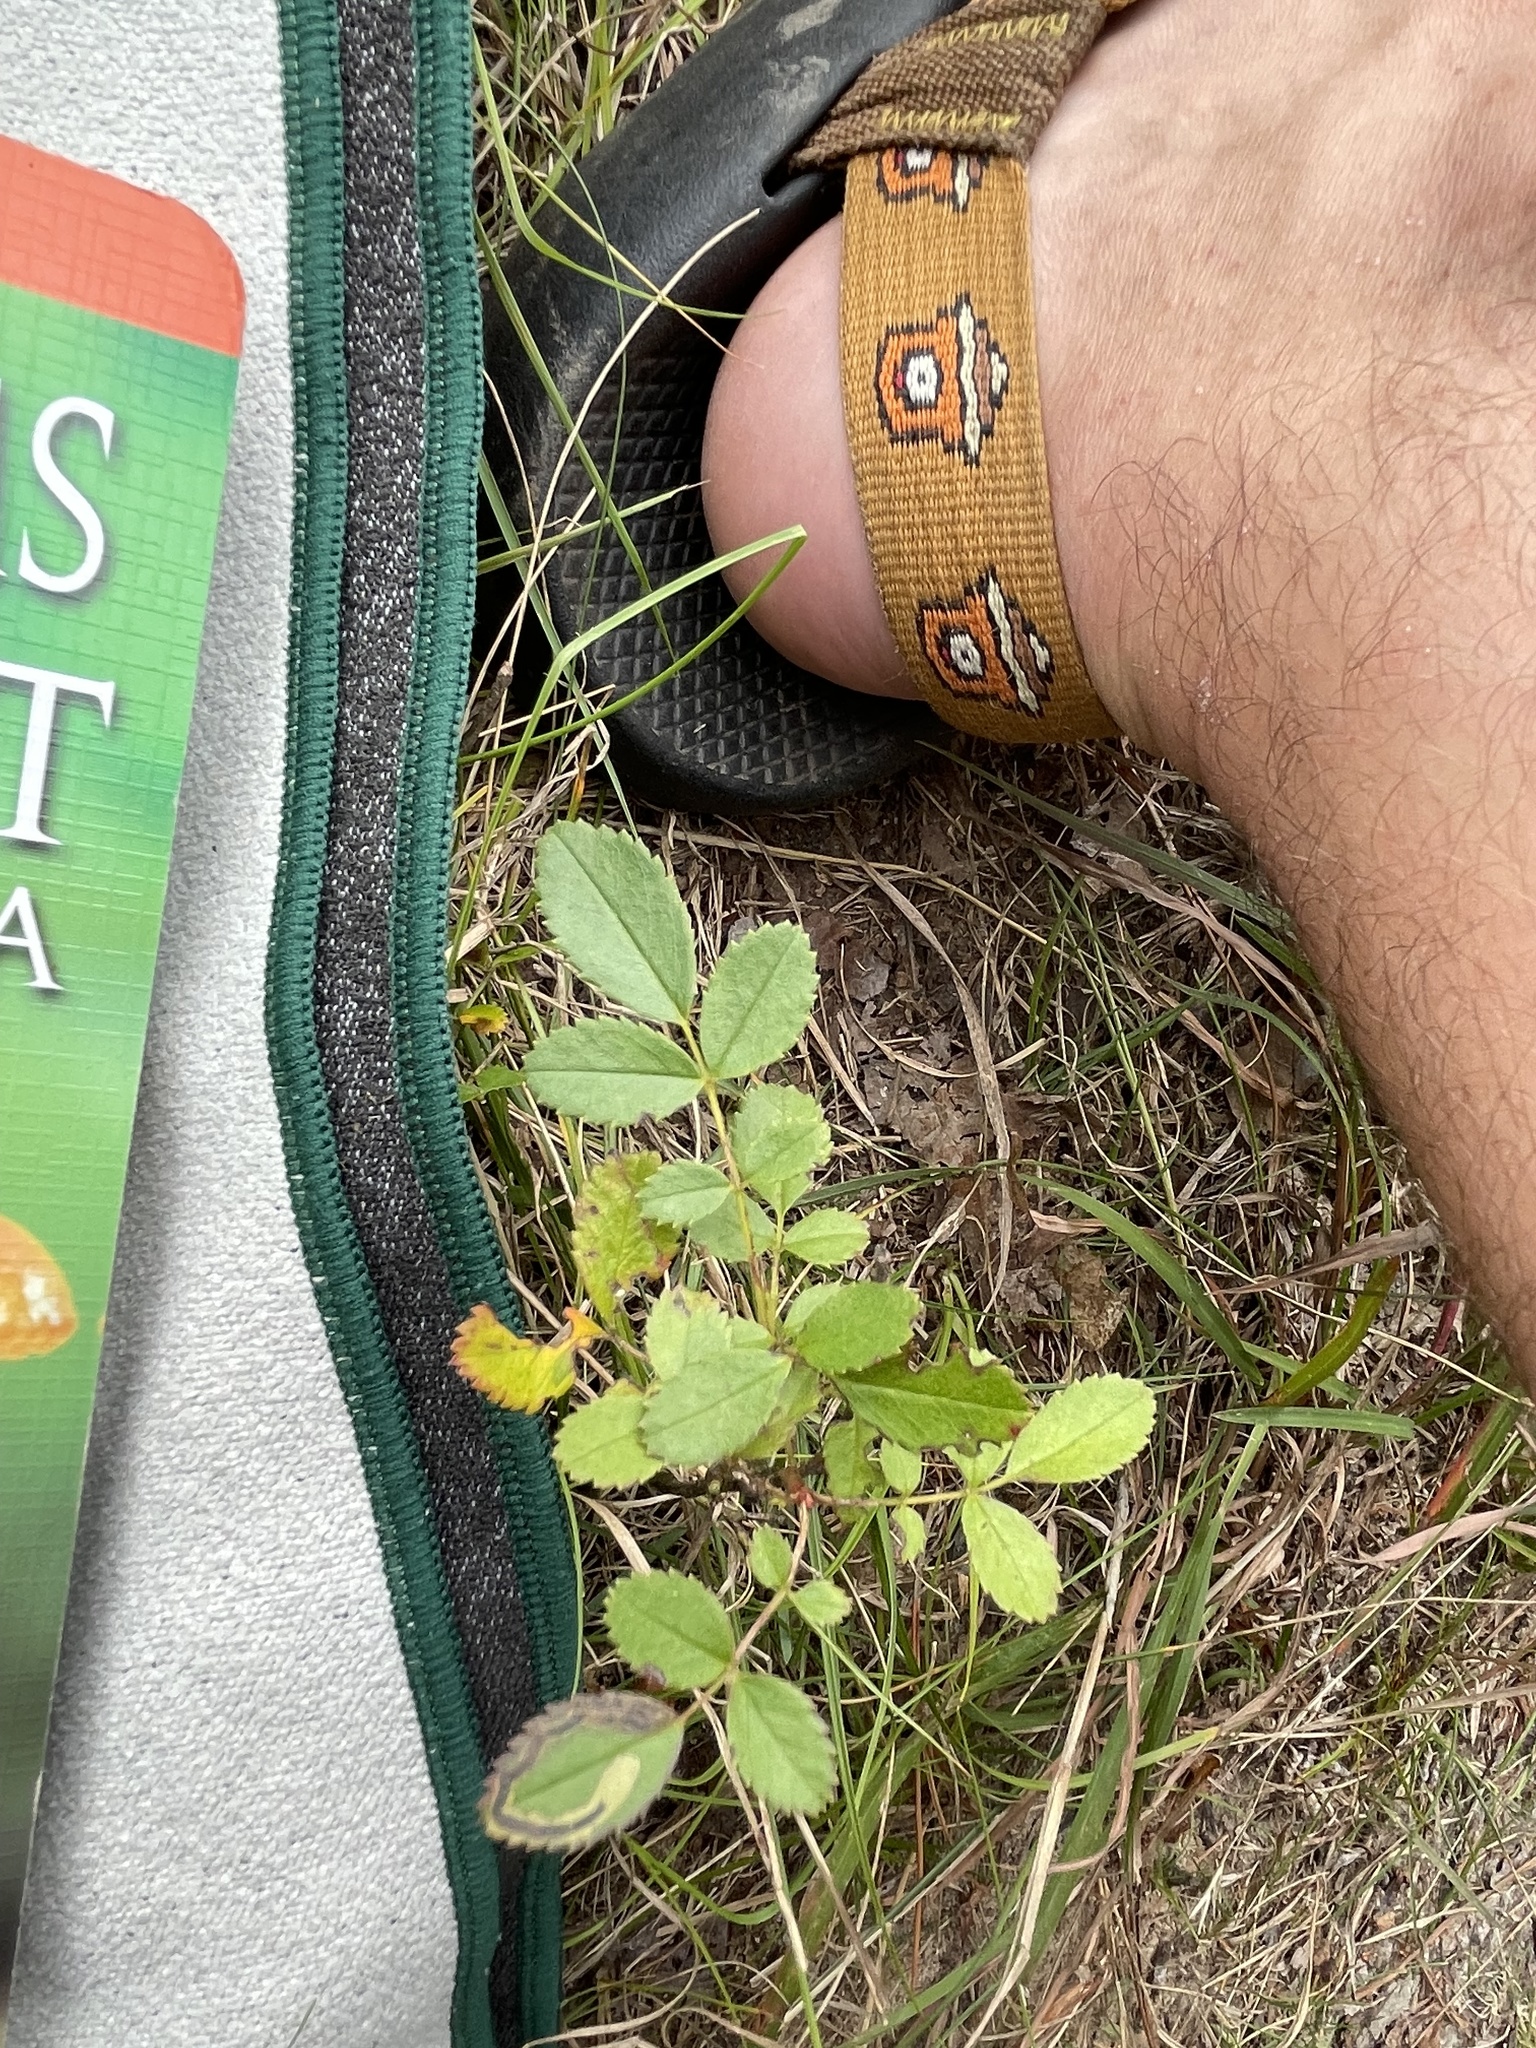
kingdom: Animalia
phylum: Arthropoda
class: Insecta
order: Lepidoptera
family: Nepticulidae
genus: Stigmella
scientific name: Stigmella rosaefoliella
